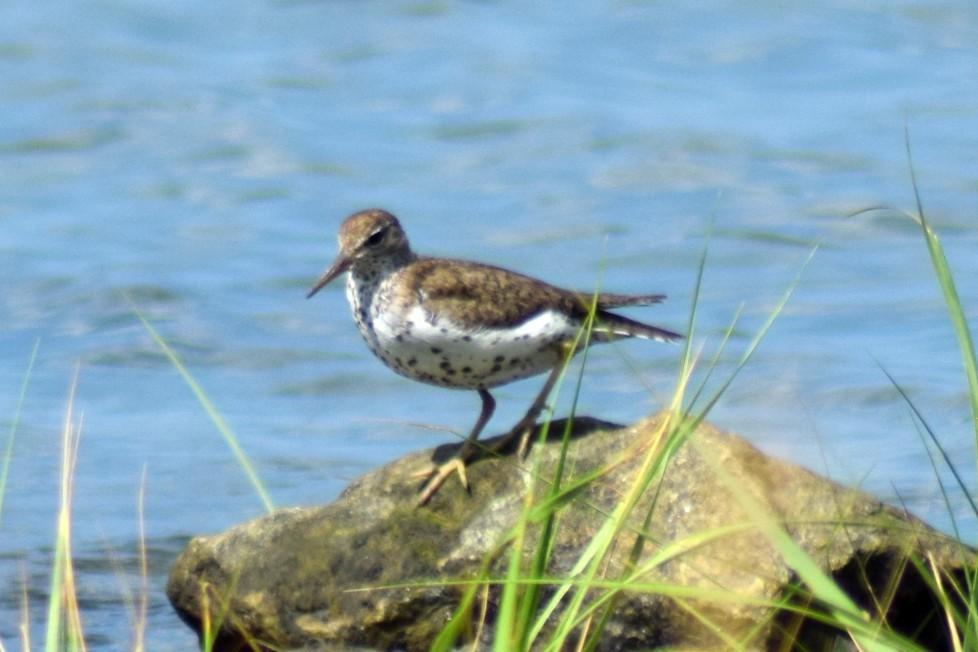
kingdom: Animalia
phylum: Chordata
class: Aves
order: Charadriiformes
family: Scolopacidae
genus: Actitis
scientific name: Actitis macularius
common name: Spotted sandpiper
